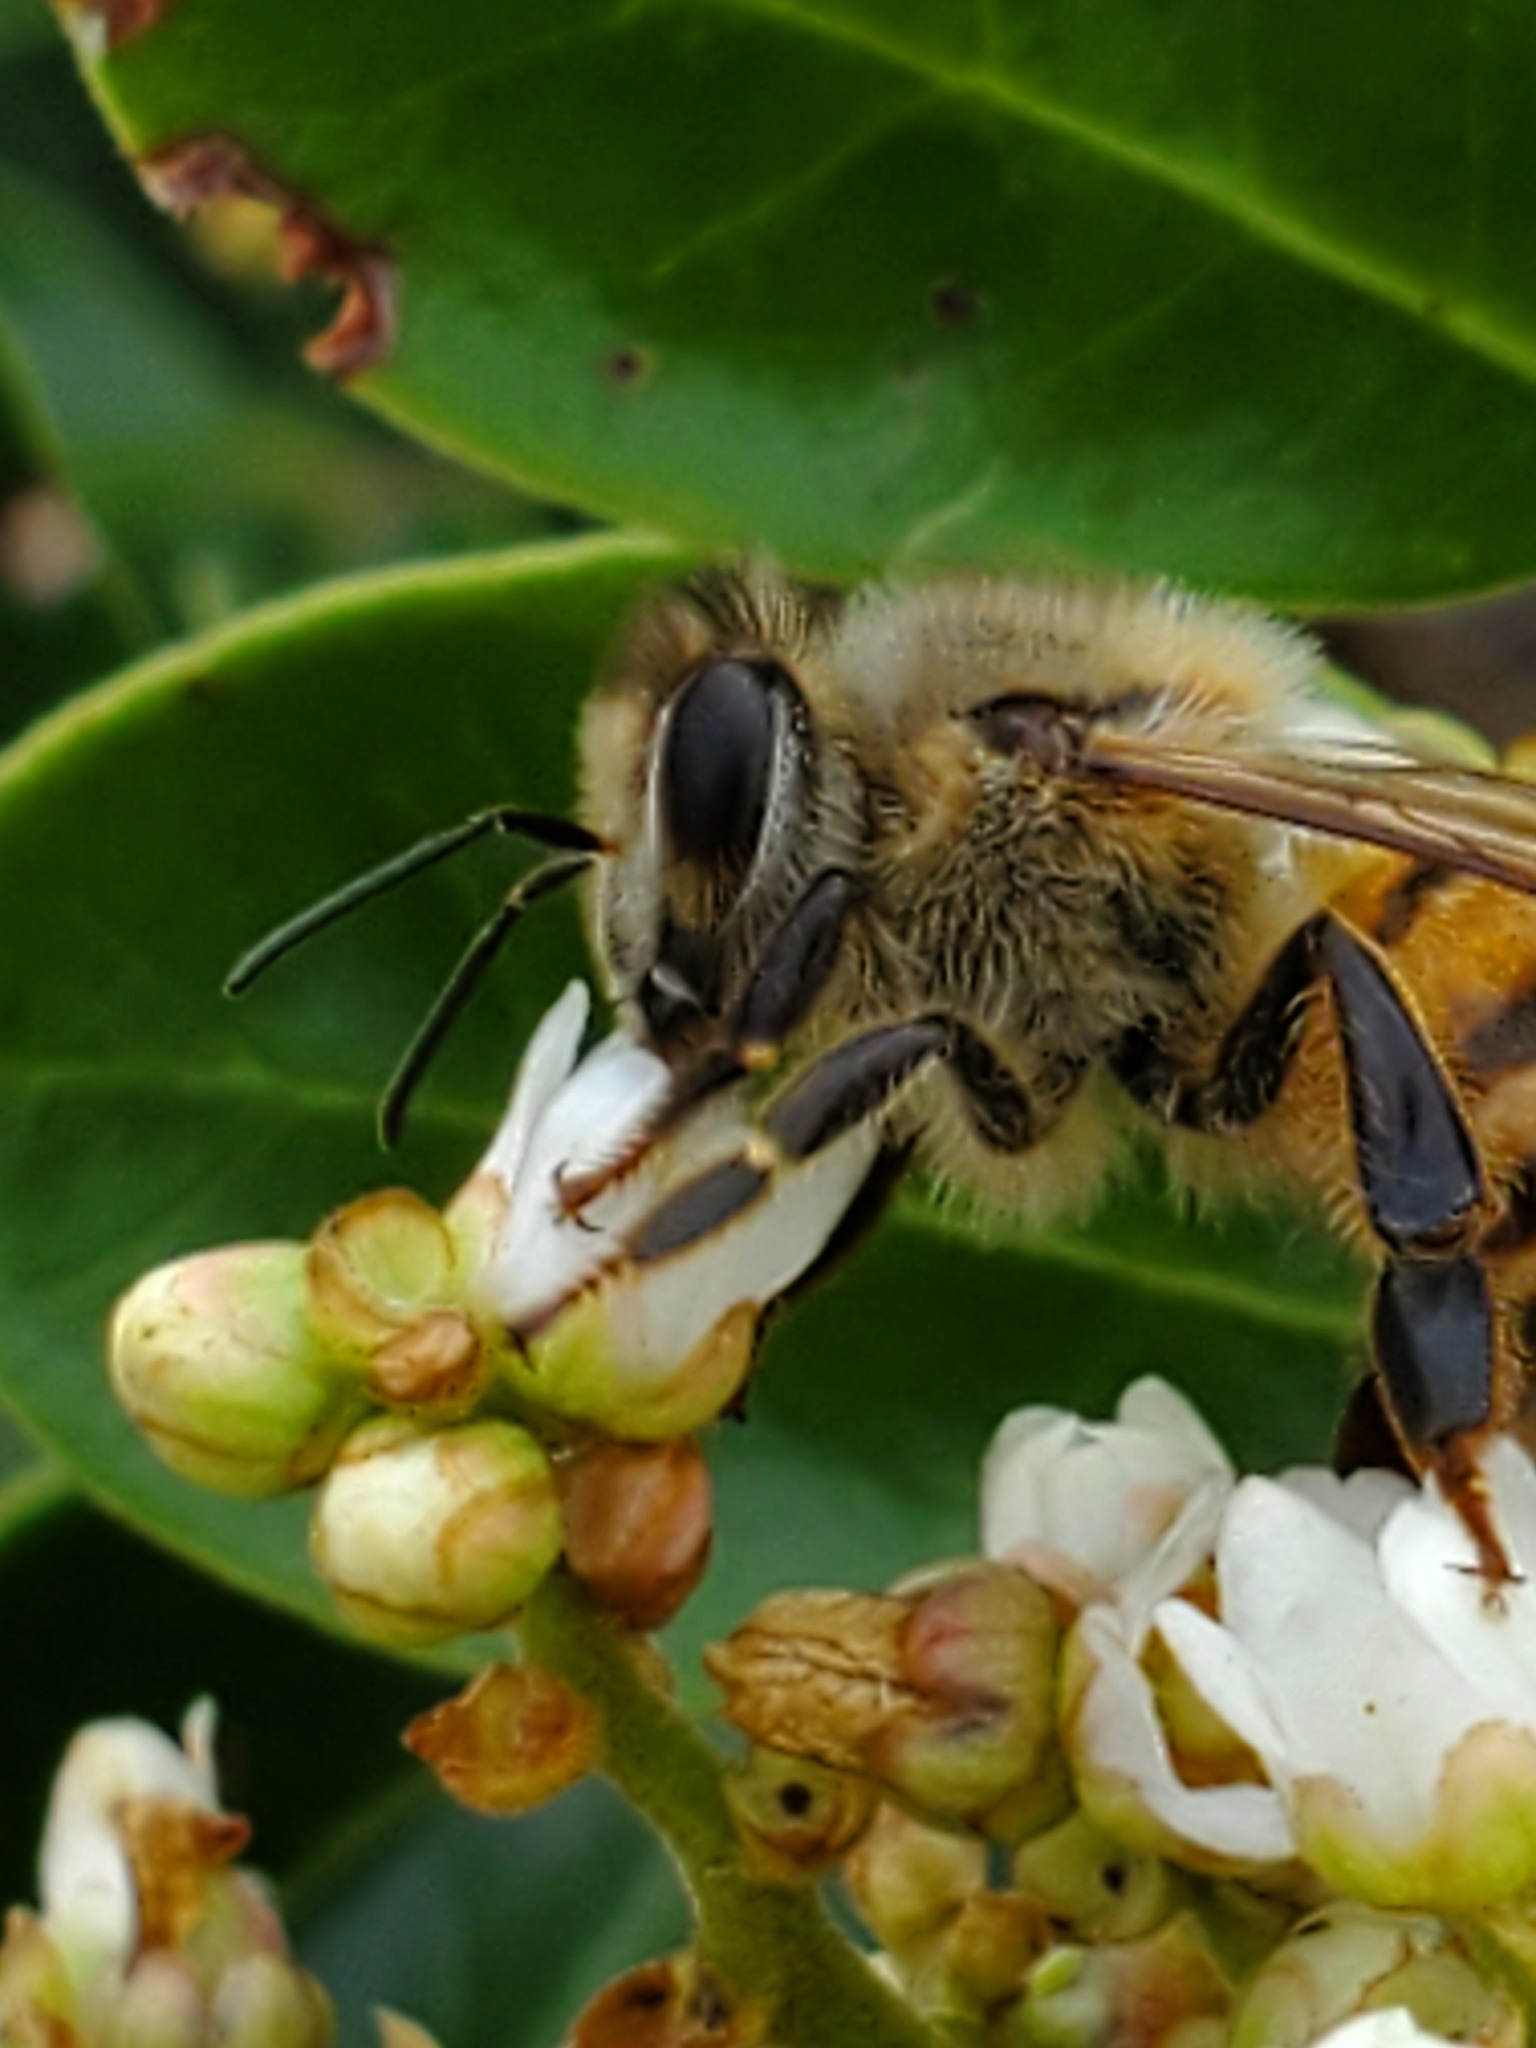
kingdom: Animalia
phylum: Arthropoda
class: Insecta
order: Hymenoptera
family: Apidae
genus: Apis
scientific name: Apis mellifera
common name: Honey bee
